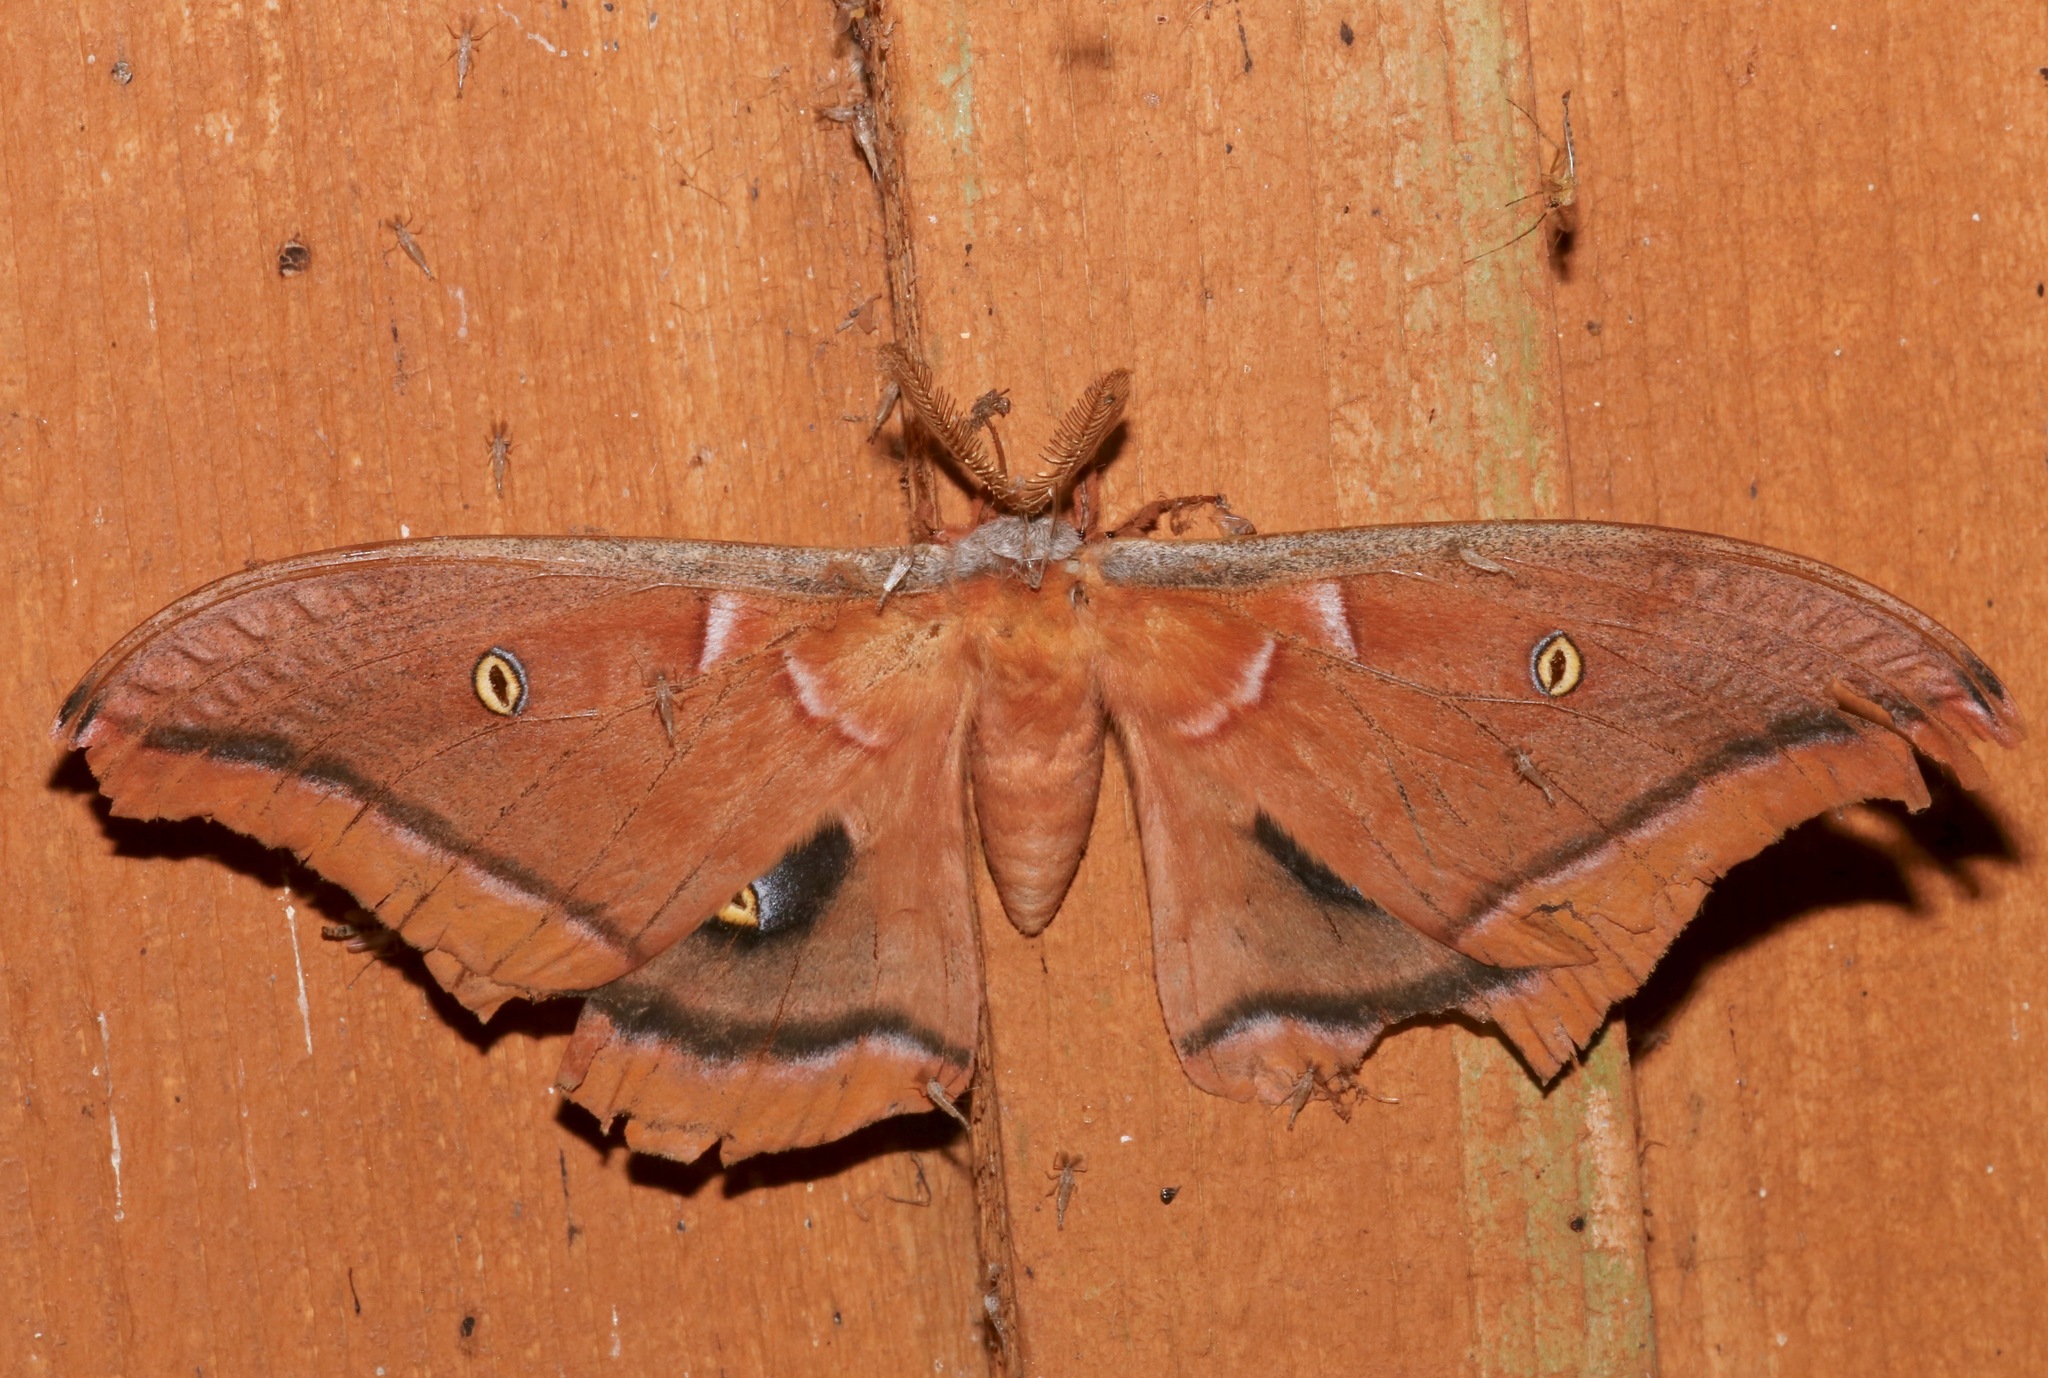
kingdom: Animalia
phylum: Arthropoda
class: Insecta
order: Lepidoptera
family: Saturniidae
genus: Antheraea
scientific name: Antheraea polyphemus
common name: Polyphemus moth
